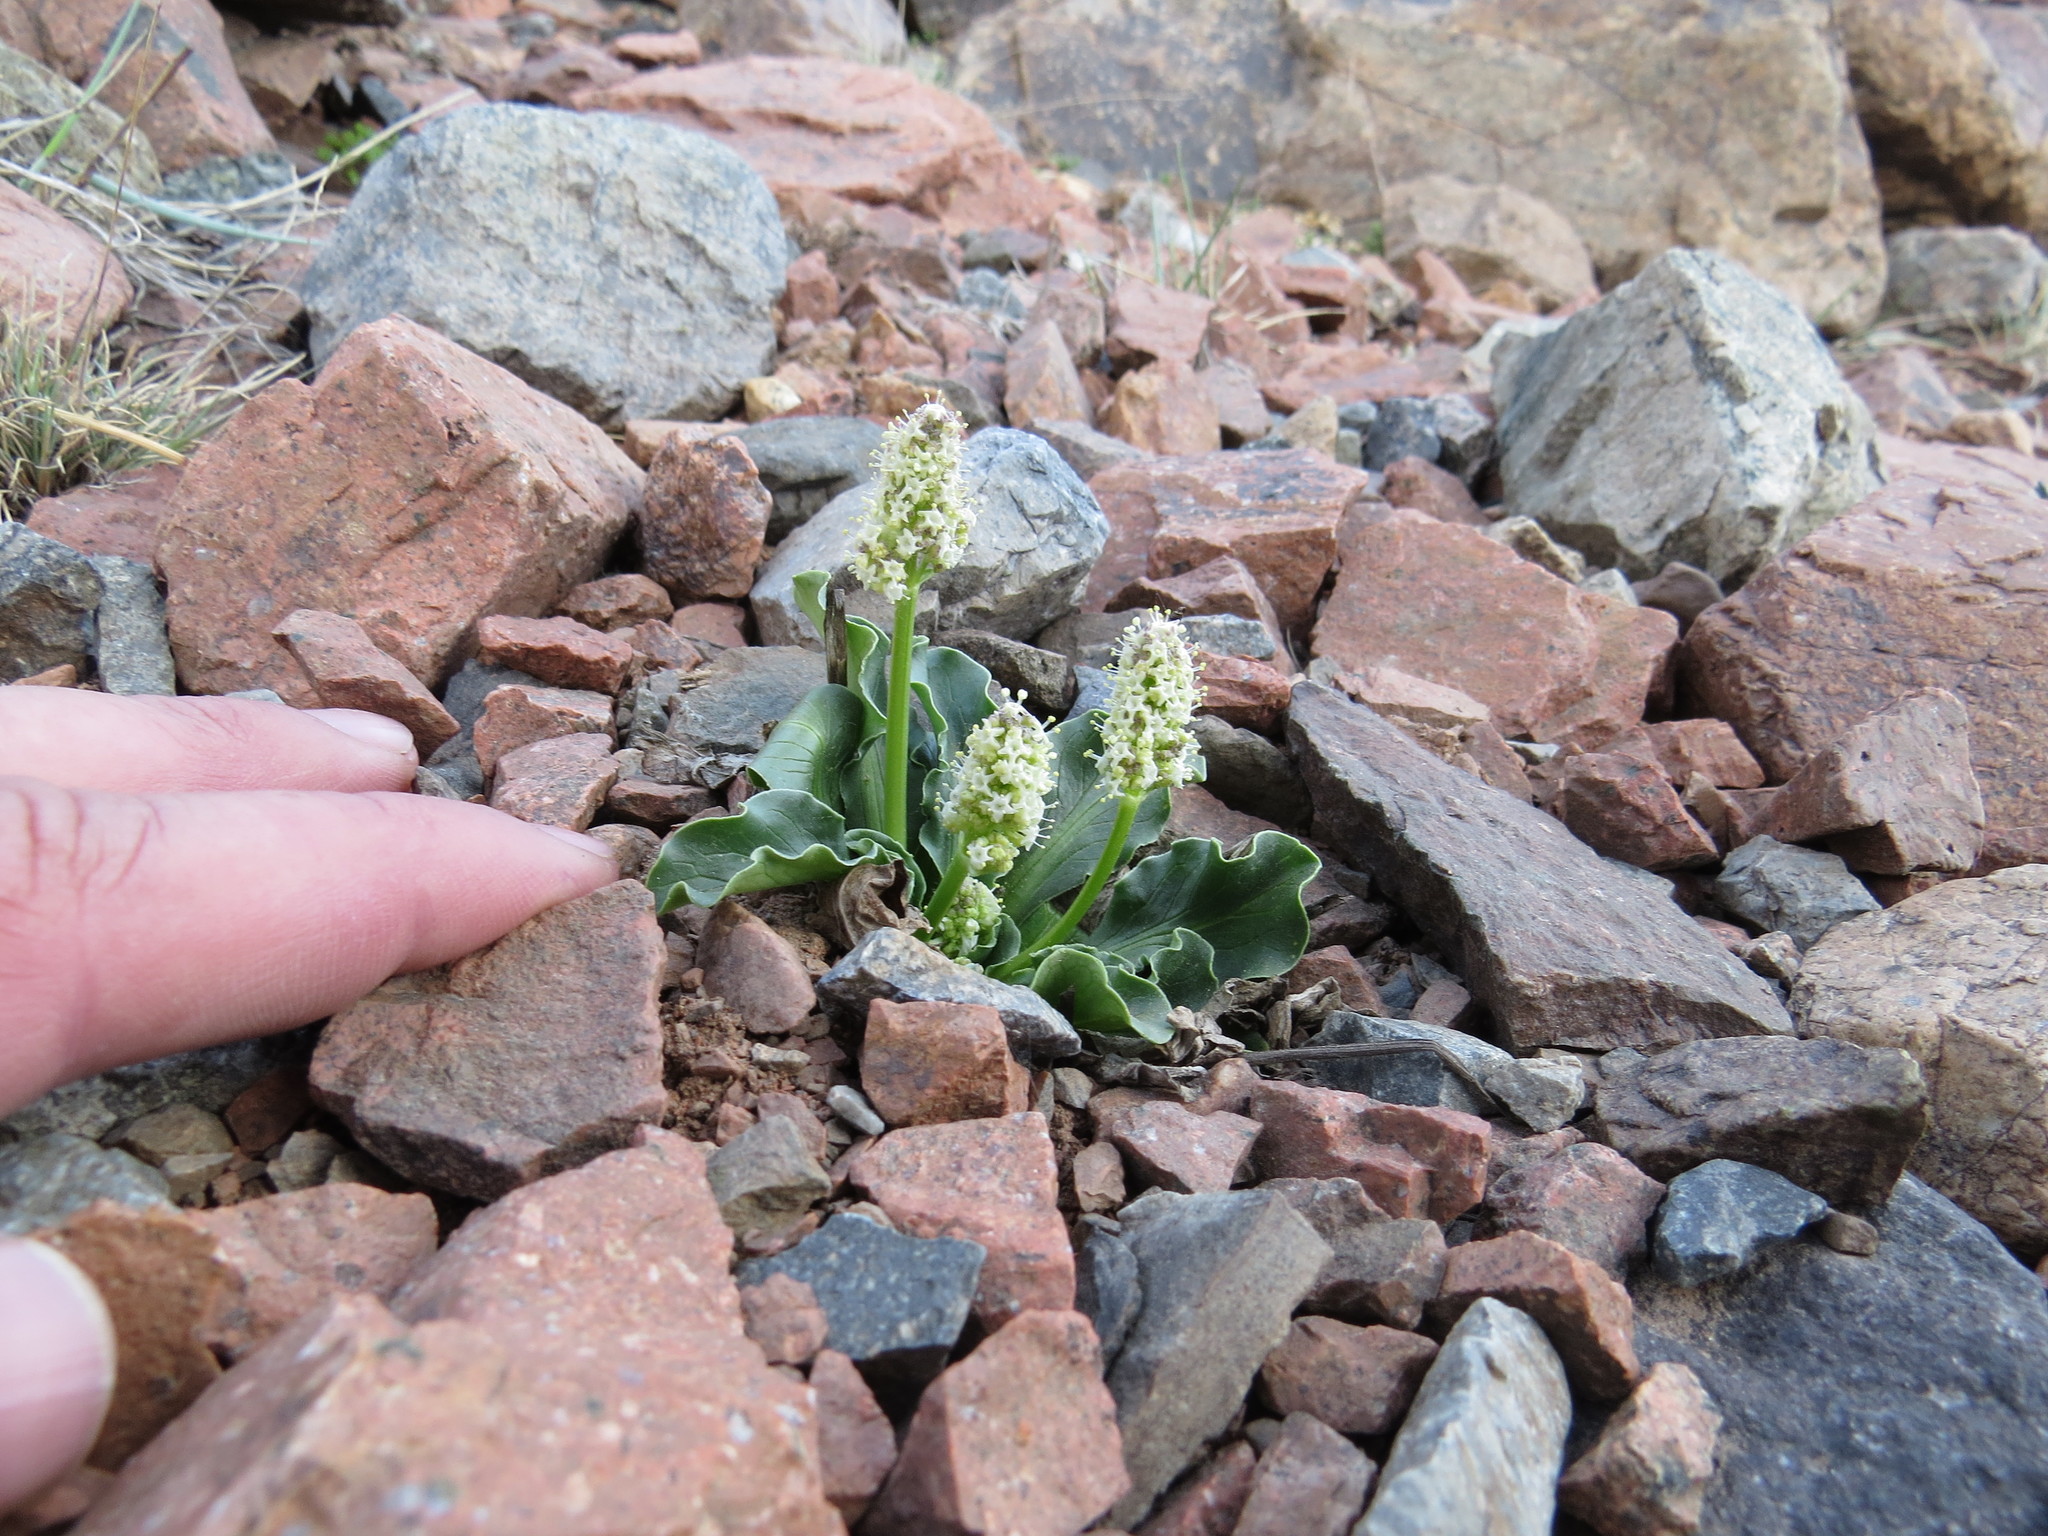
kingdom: Plantae
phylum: Tracheophyta
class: Magnoliopsida
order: Dipsacales
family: Caprifoliaceae
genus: Valeriana
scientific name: Valeriana macrorhiza
